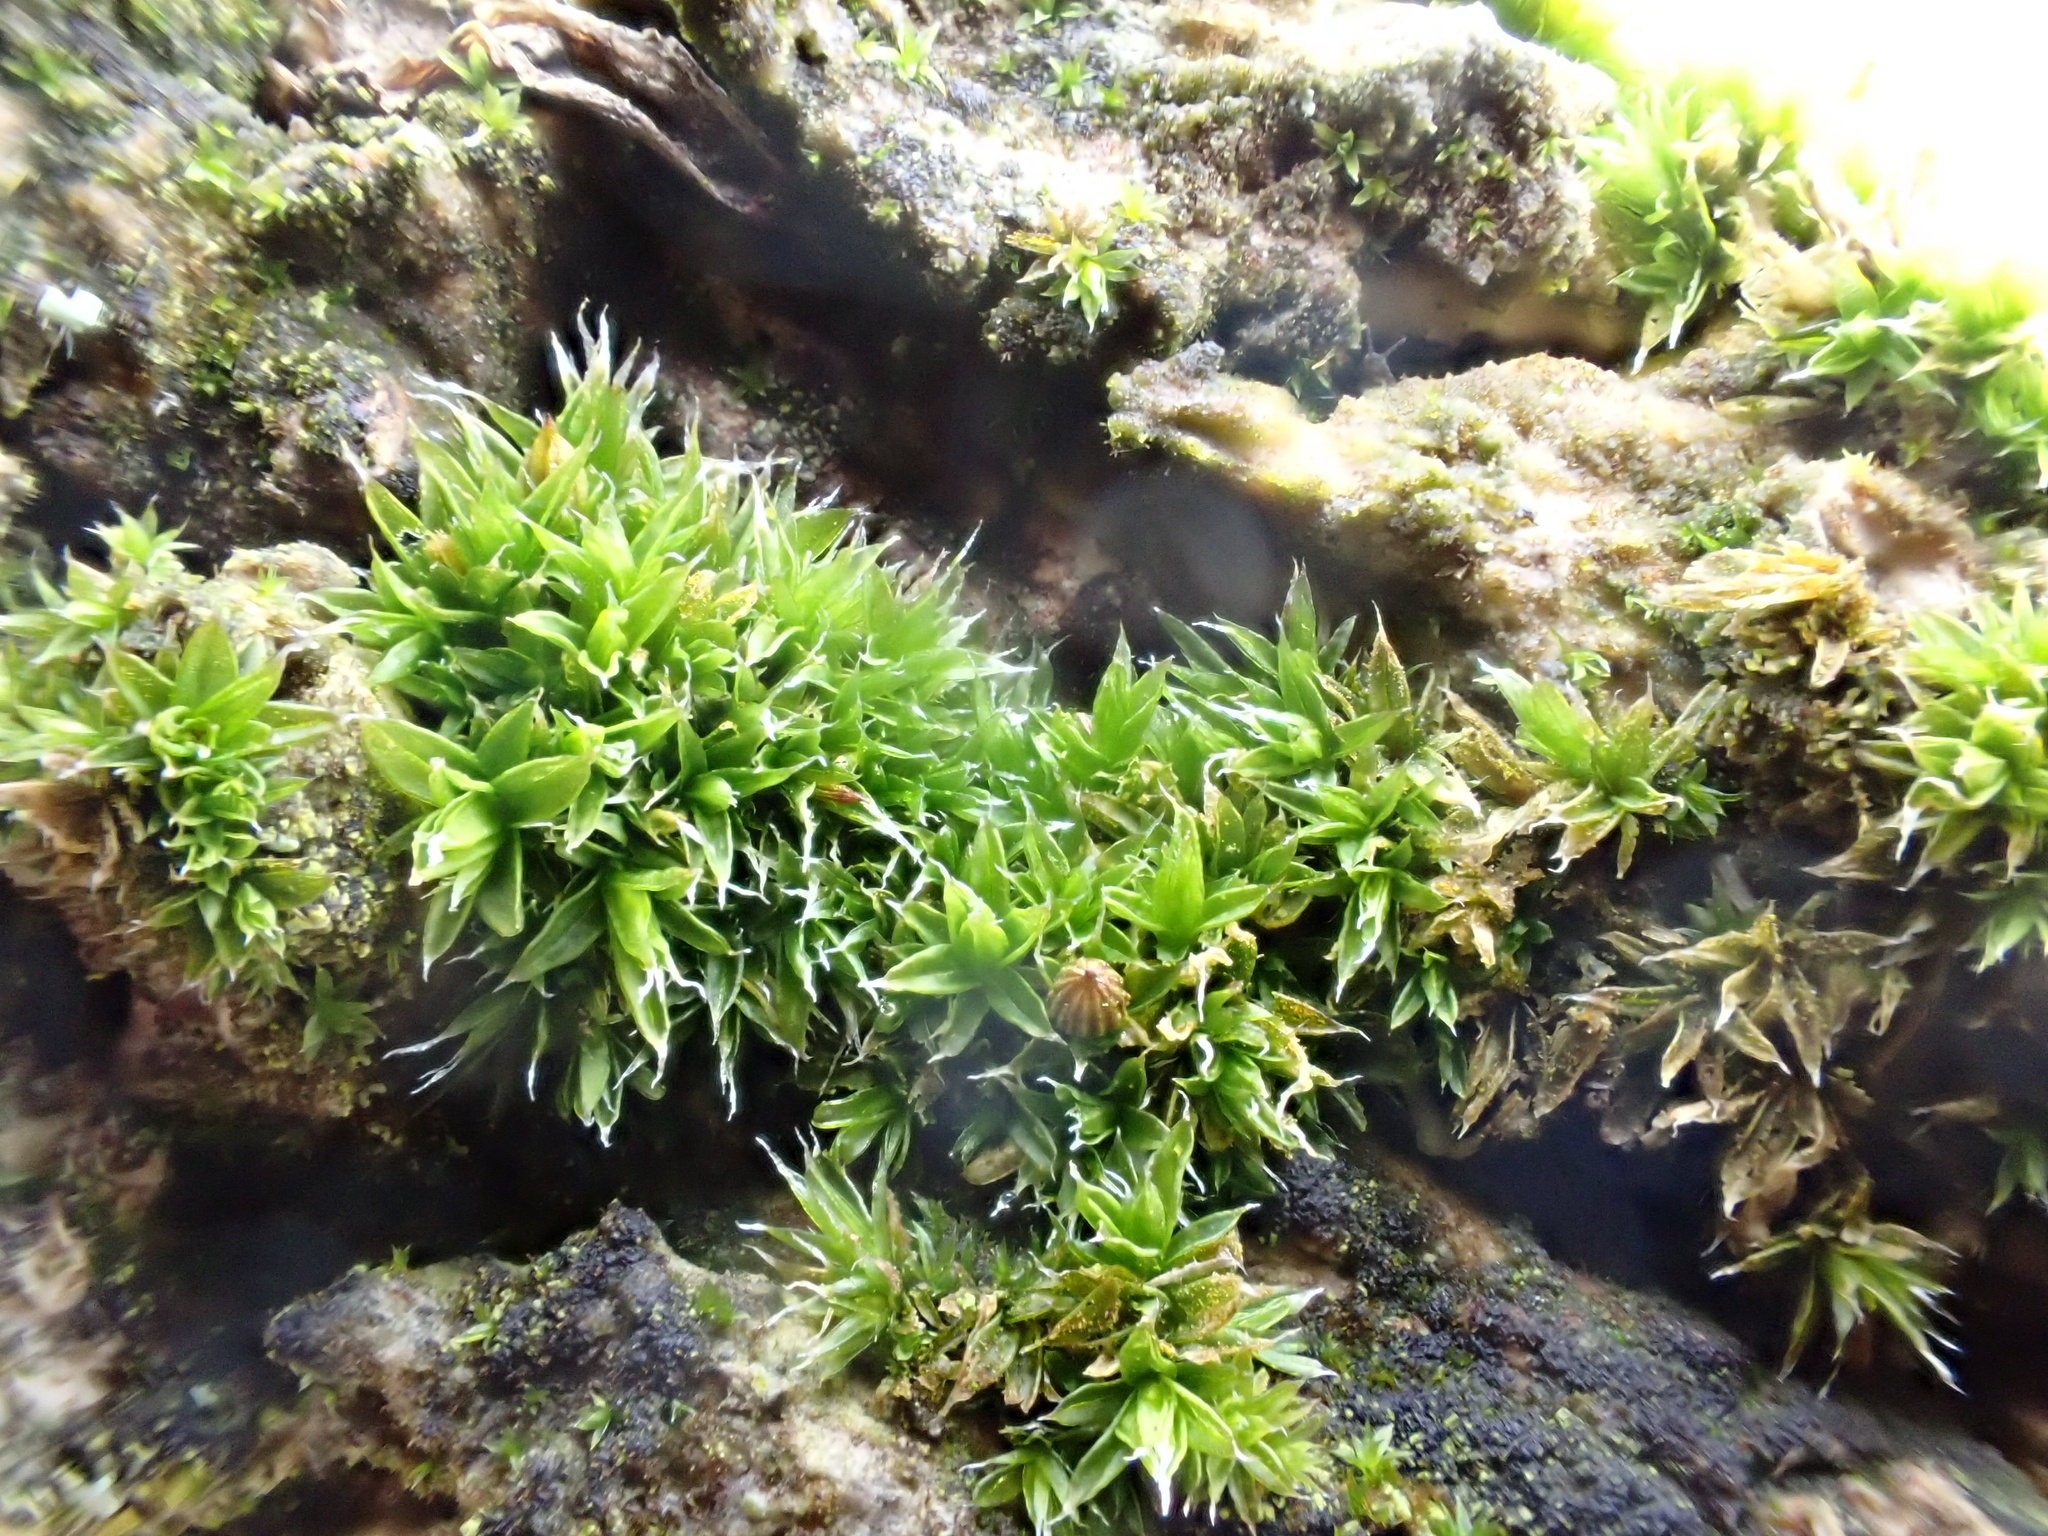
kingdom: Plantae
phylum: Bryophyta
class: Bryopsida
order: Orthotrichales
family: Orthotrichaceae
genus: Orthotrichum
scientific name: Orthotrichum diaphanum
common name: White-tipped bristle-moss
